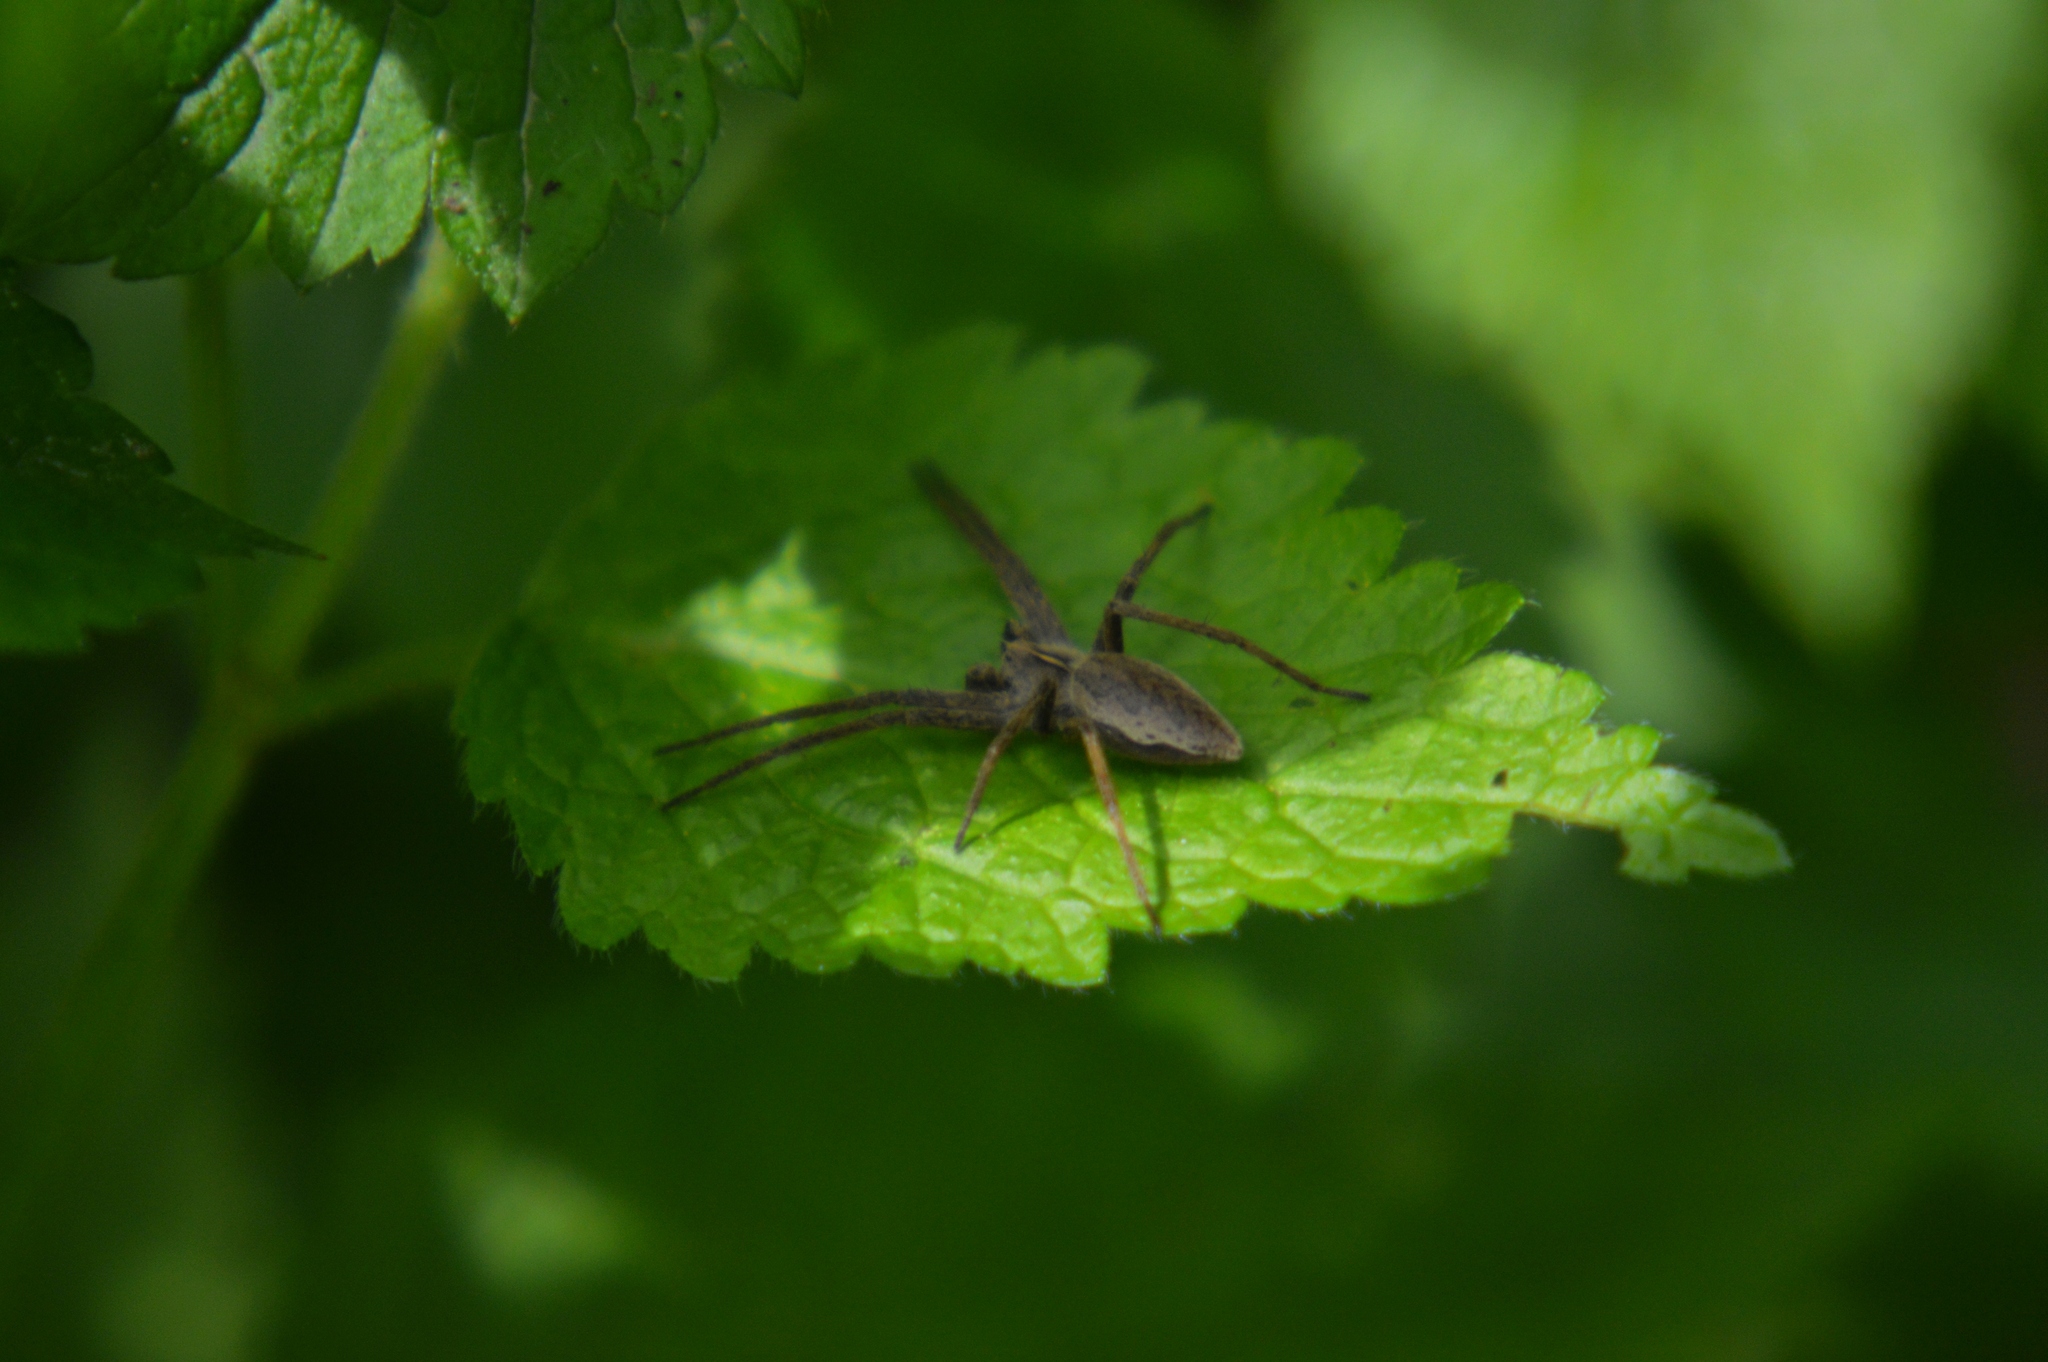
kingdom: Animalia
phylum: Arthropoda
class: Arachnida
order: Araneae
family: Pisauridae
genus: Pisaura
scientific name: Pisaura mirabilis
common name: Tent spider
